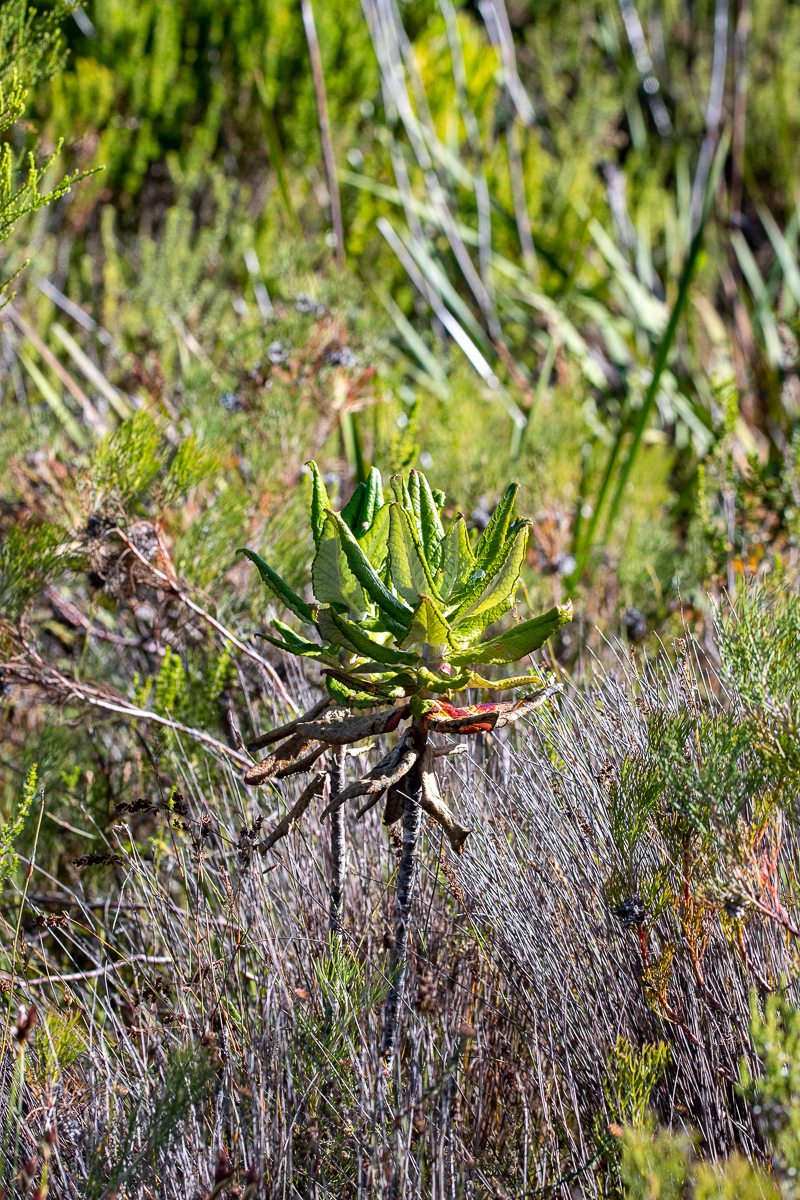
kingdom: Plantae
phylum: Tracheophyta
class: Magnoliopsida
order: Apiales
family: Apiaceae
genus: Hermas
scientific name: Hermas villosa
